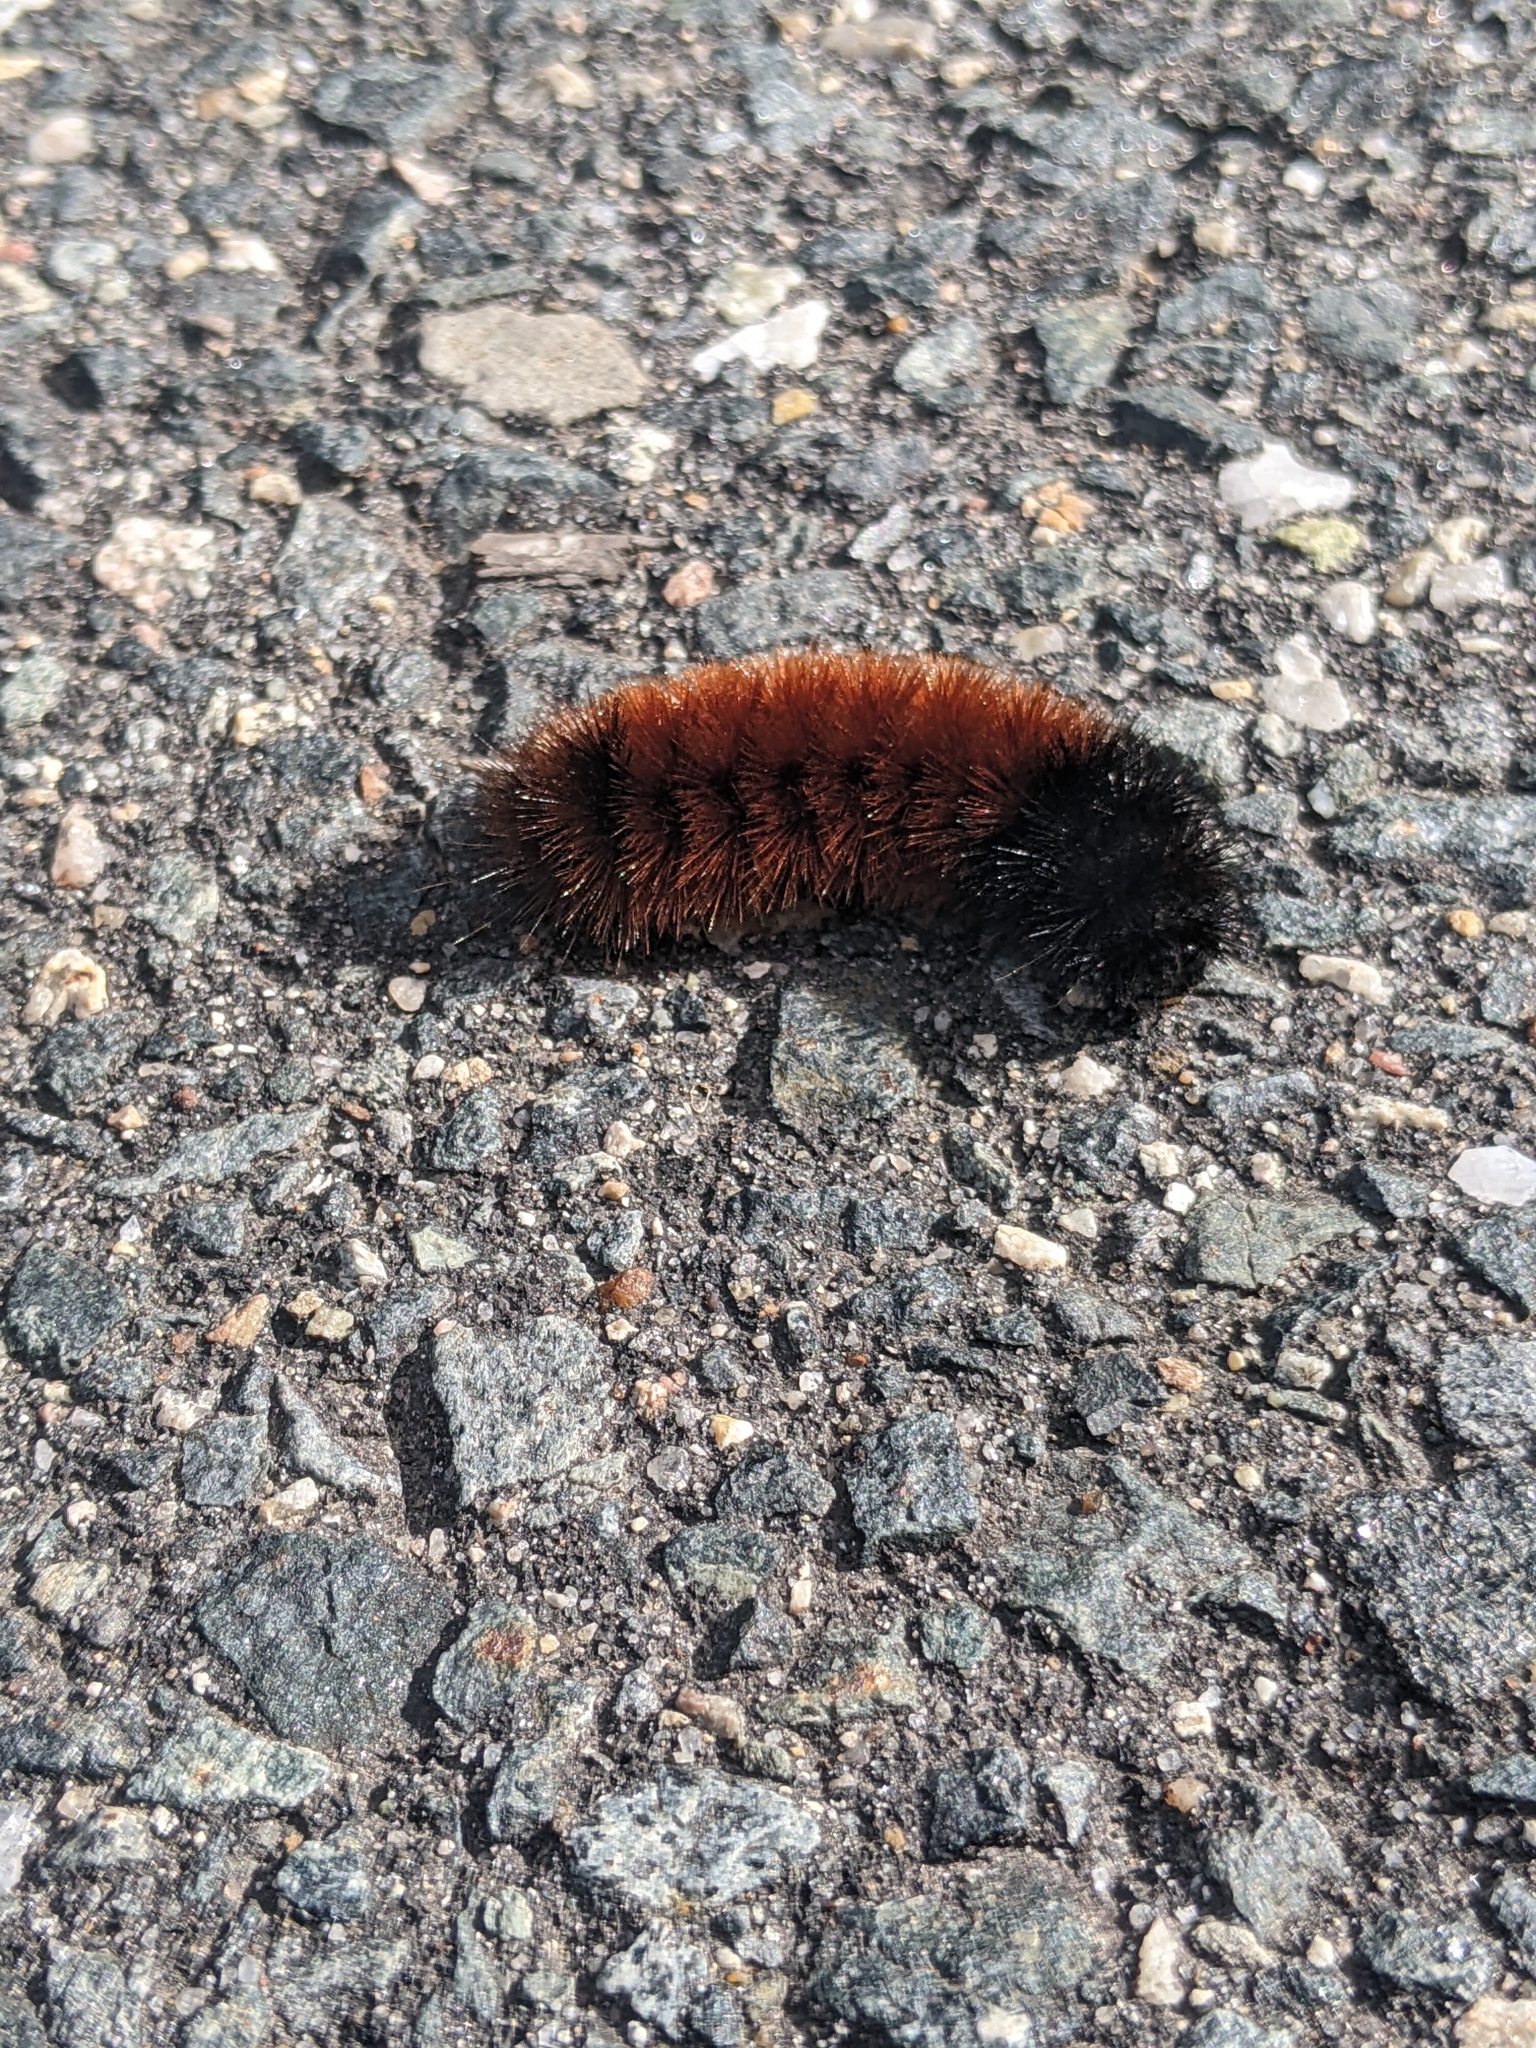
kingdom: Animalia
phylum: Arthropoda
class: Insecta
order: Lepidoptera
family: Erebidae
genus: Pyrrharctia
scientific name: Pyrrharctia isabella
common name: Isabella tiger moth
